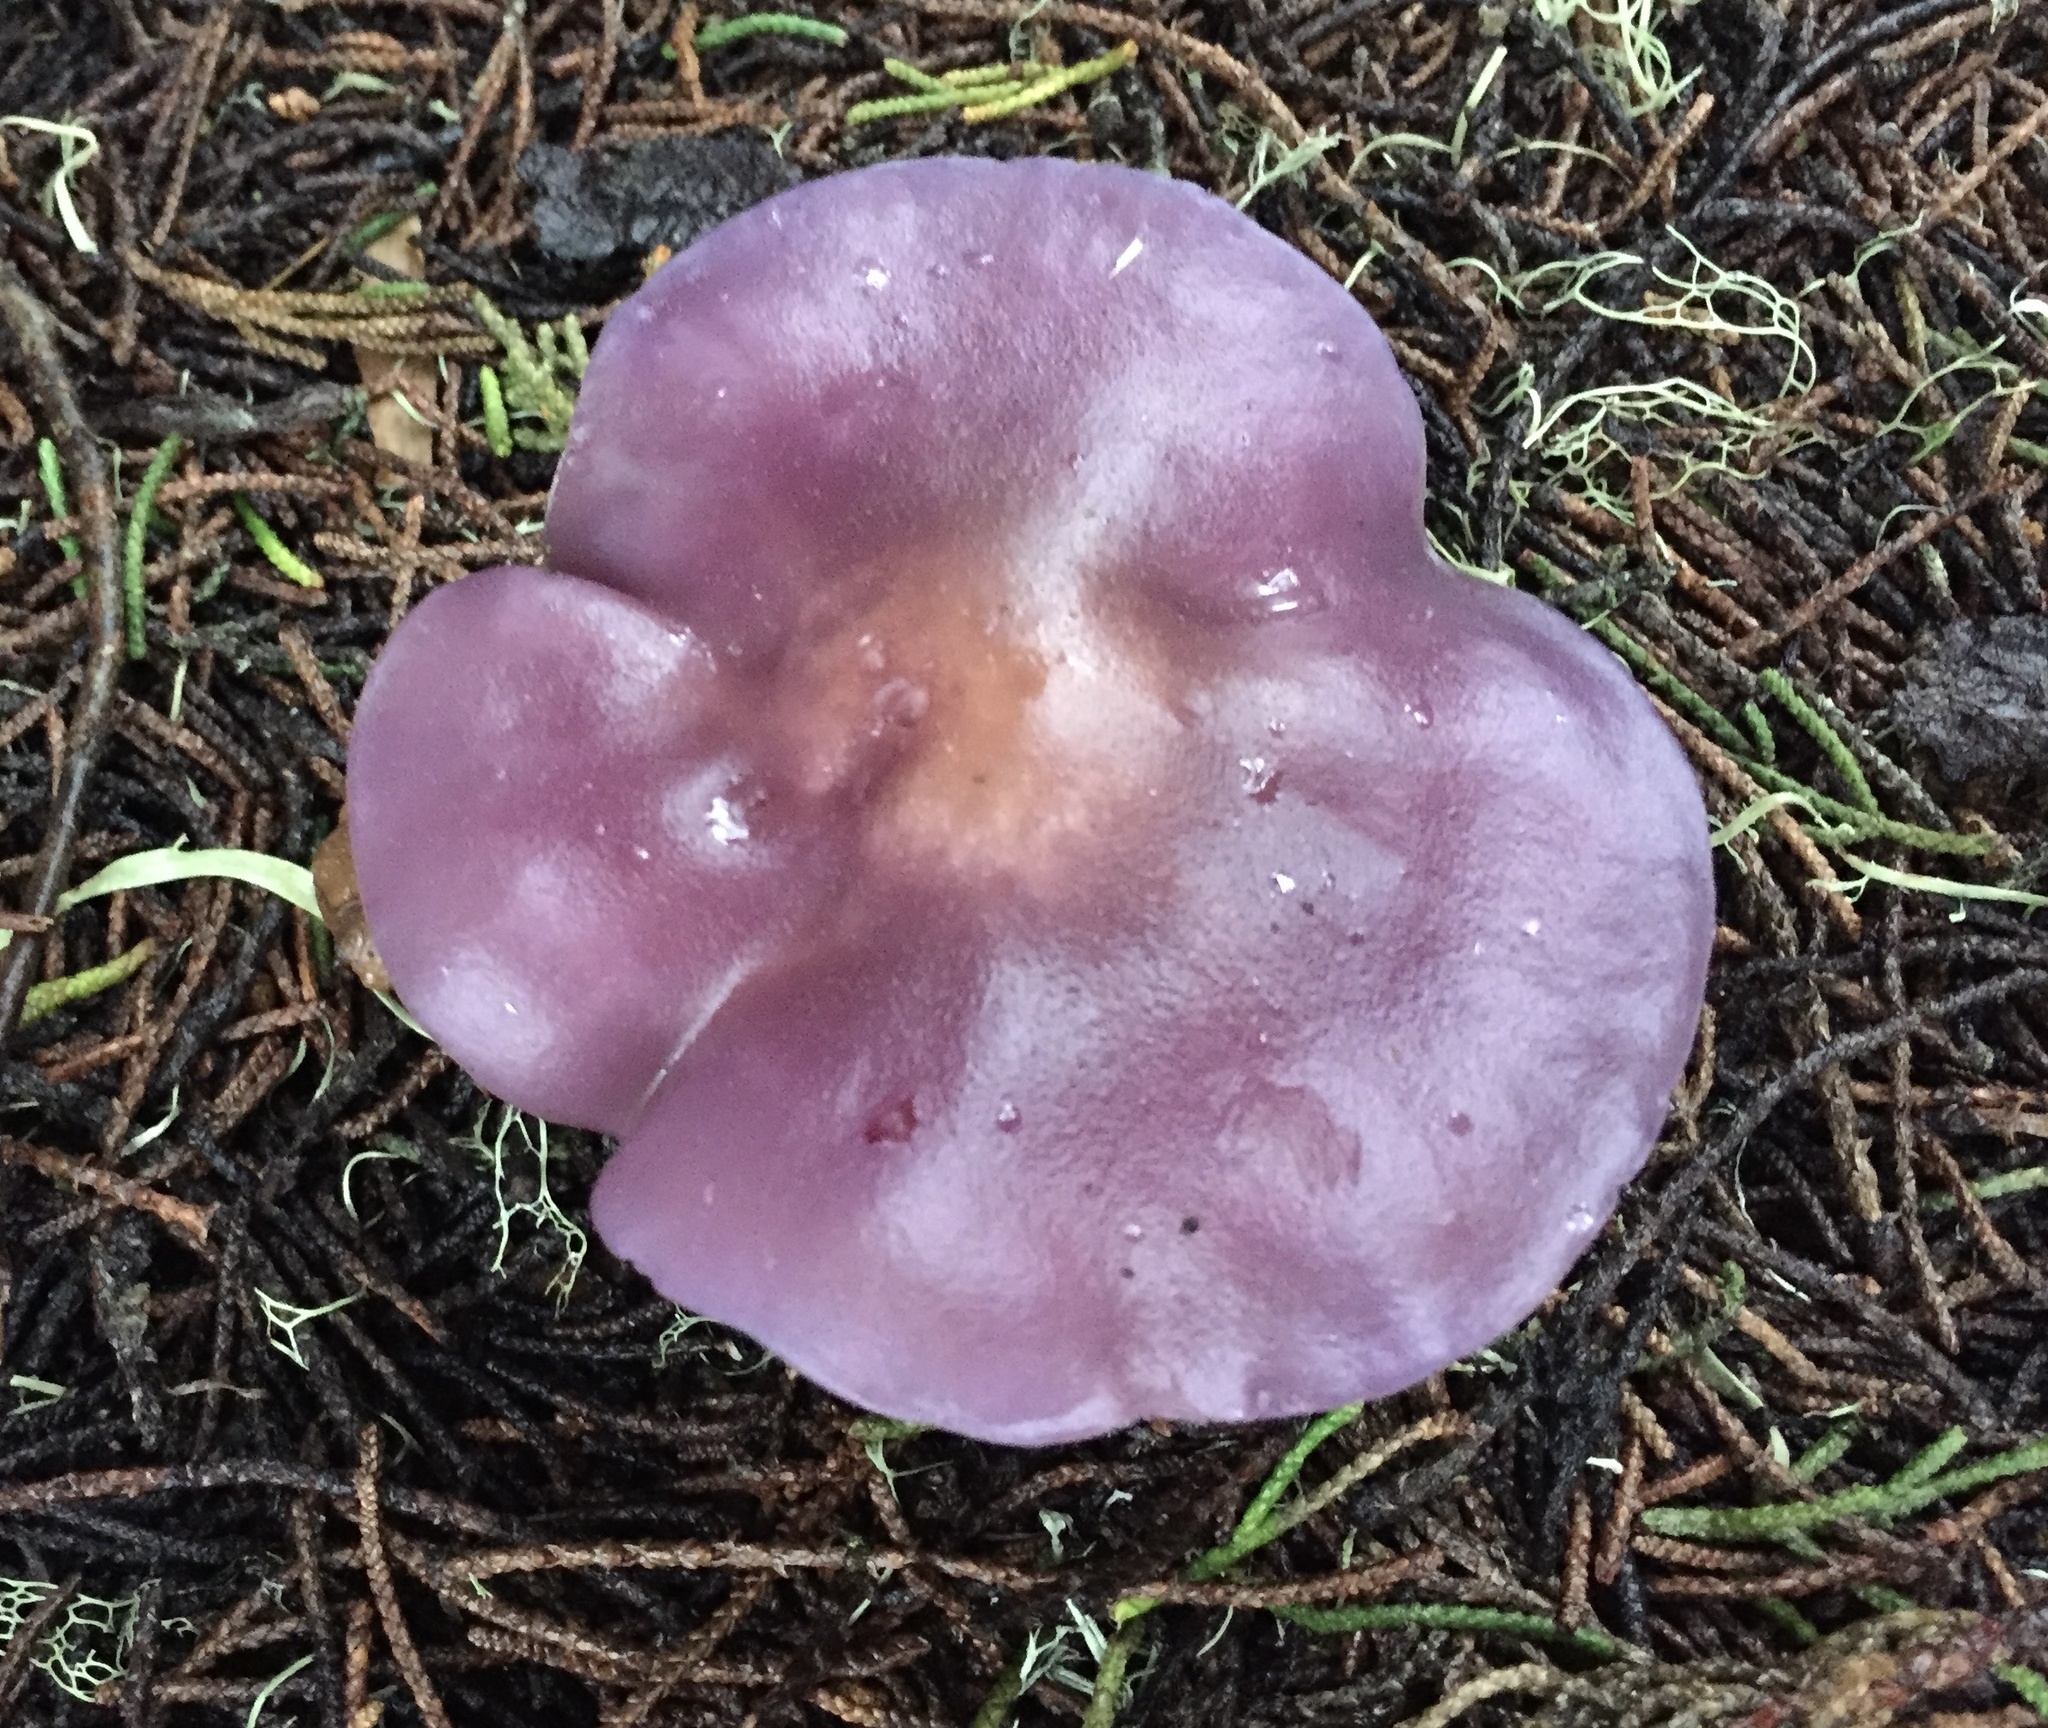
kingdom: Fungi
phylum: Basidiomycota
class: Agaricomycetes
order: Agaricales
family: Tricholomataceae
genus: Collybia
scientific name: Collybia
